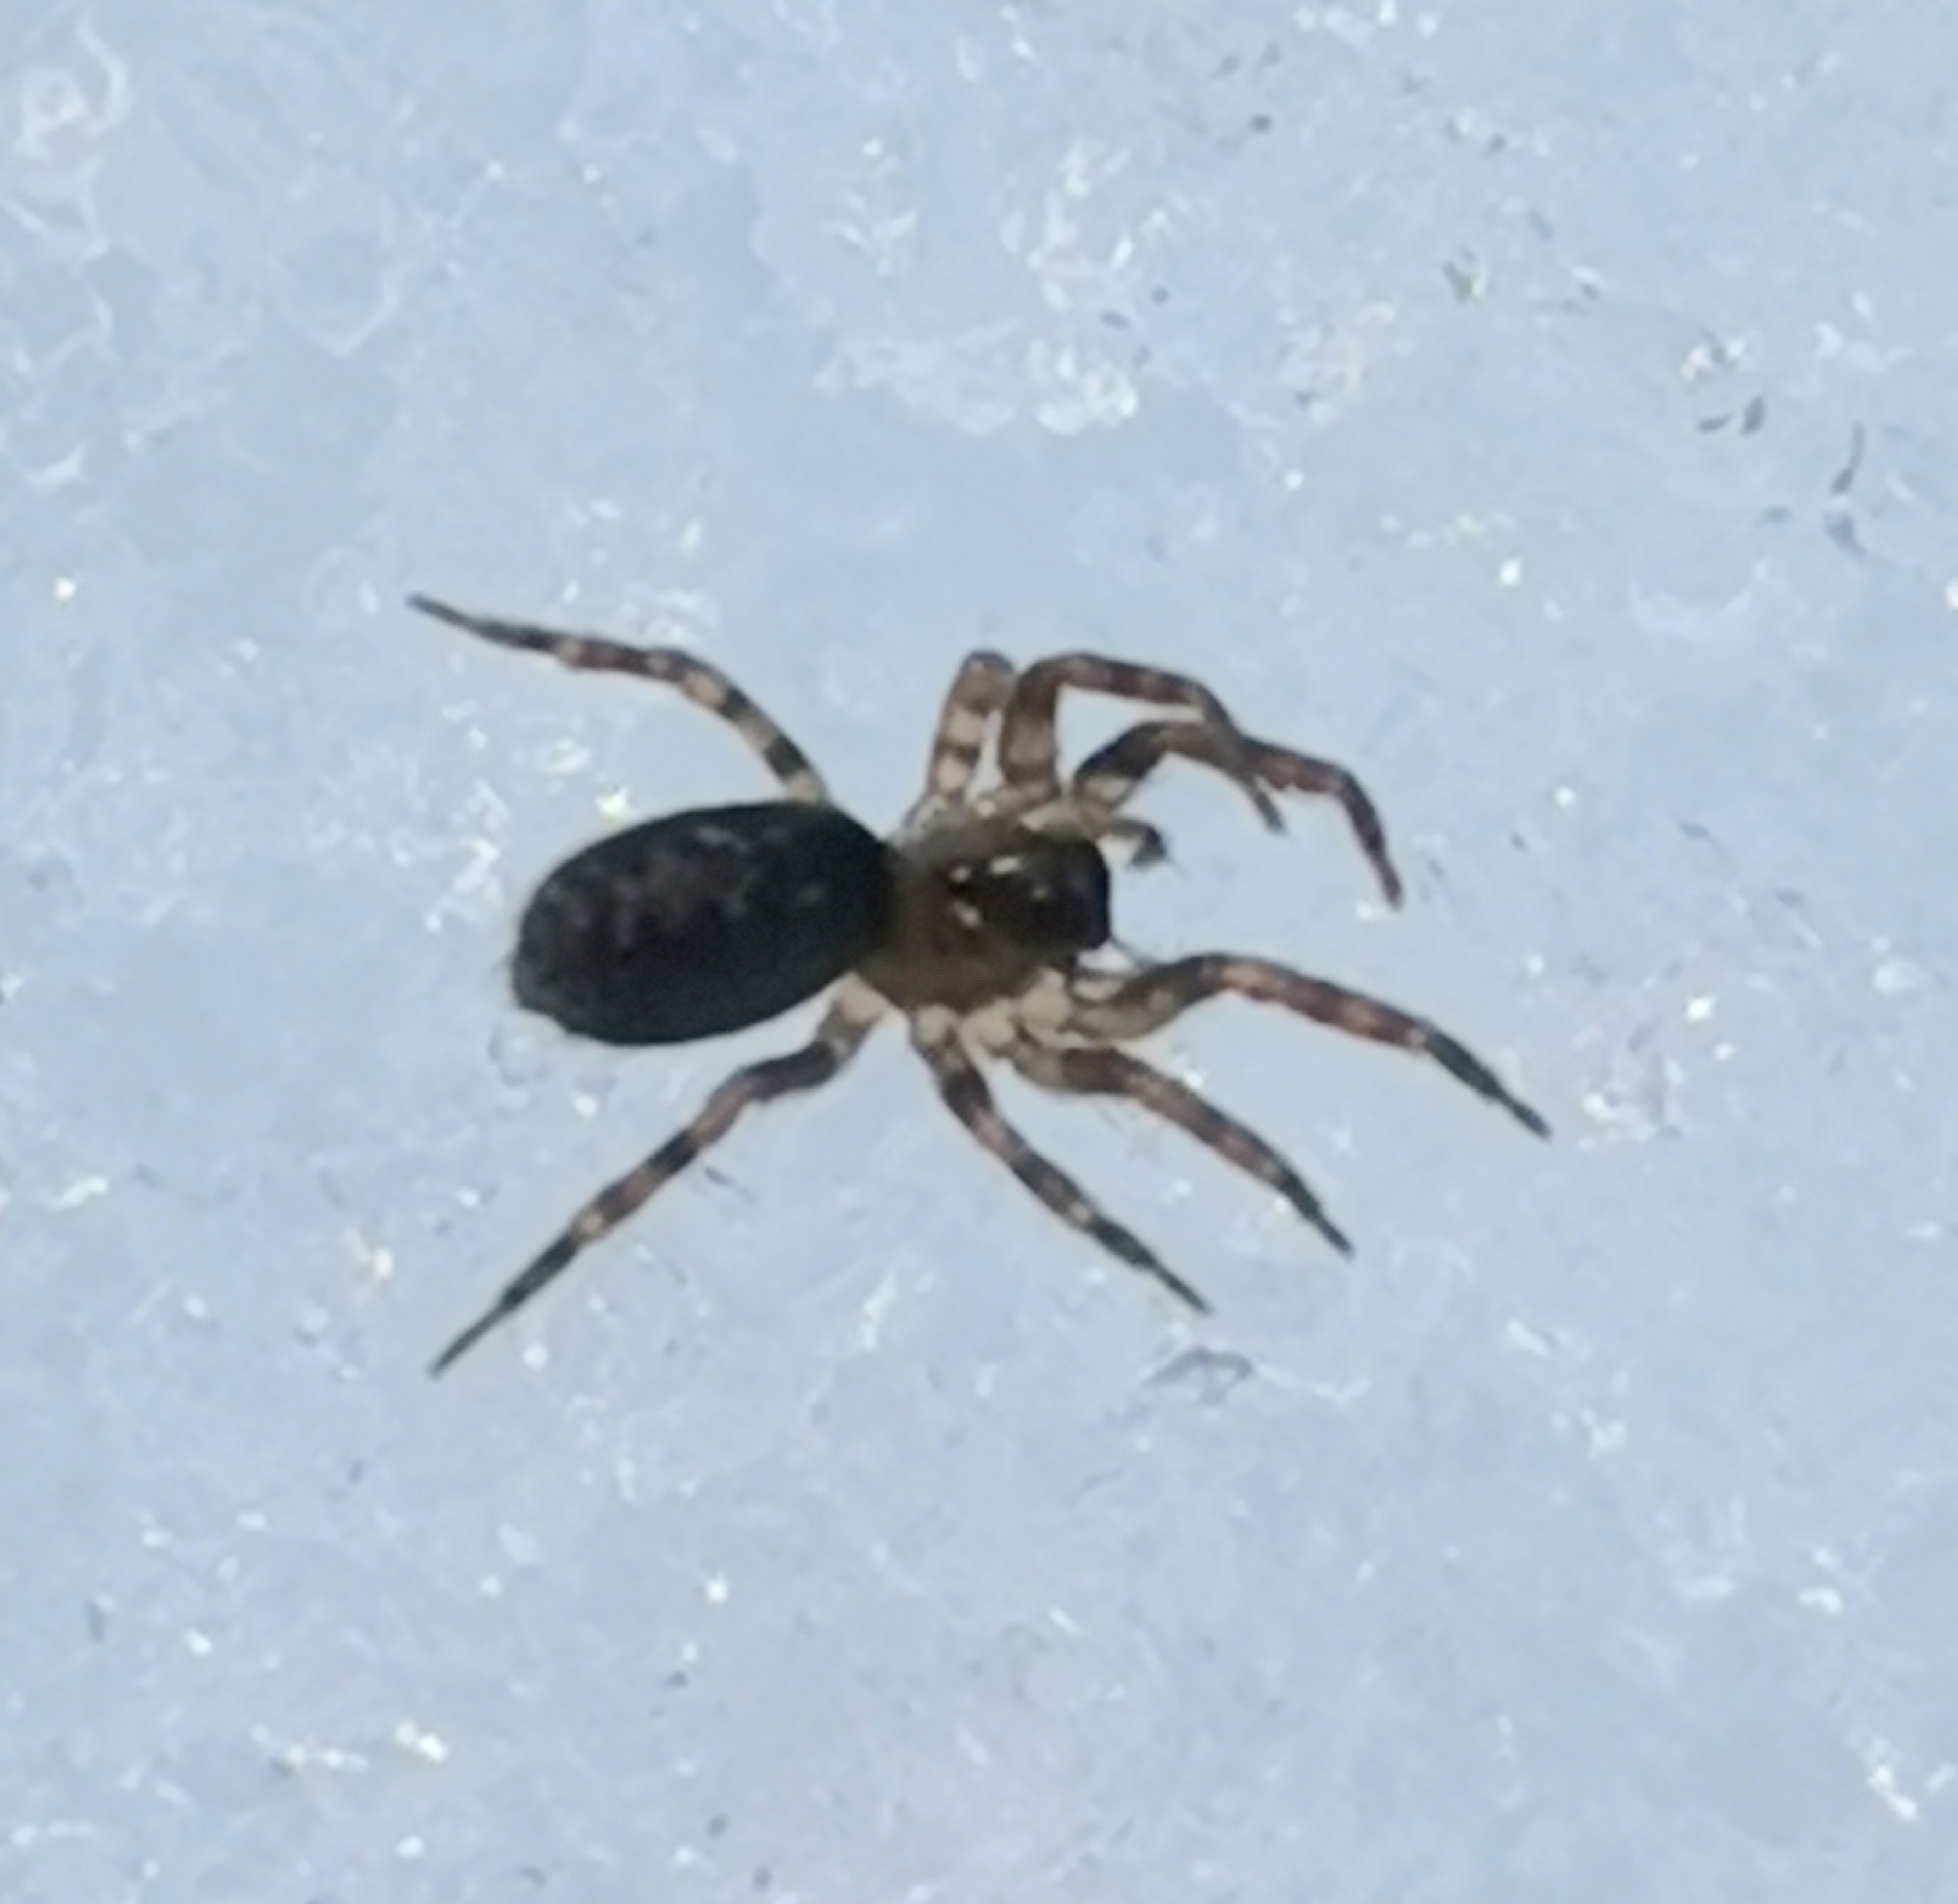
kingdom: Animalia
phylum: Arthropoda
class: Arachnida
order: Araneae
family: Cybaeidae
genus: Cryphoeca
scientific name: Cryphoeca silvicola
